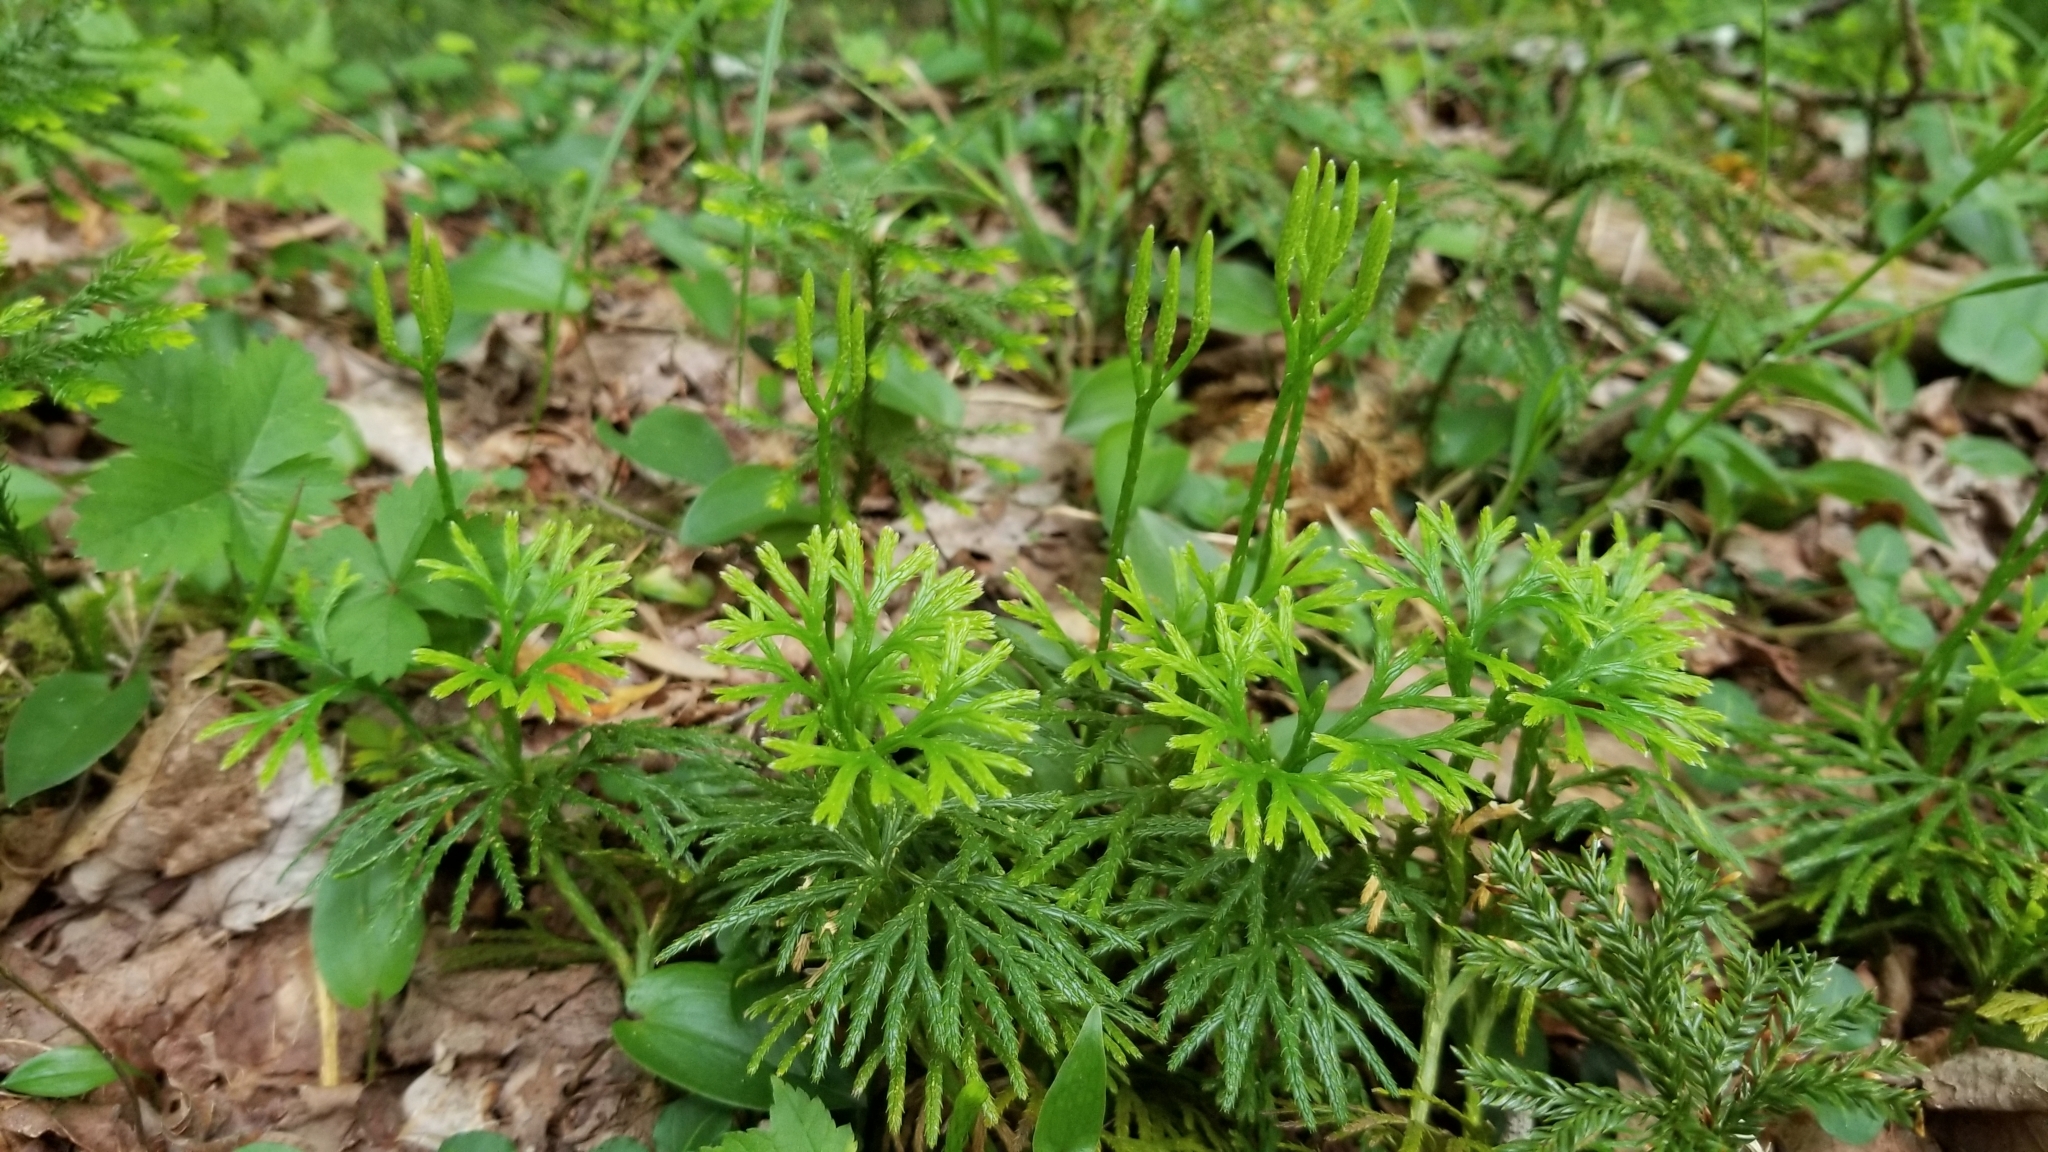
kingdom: Plantae
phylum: Tracheophyta
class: Lycopodiopsida
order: Lycopodiales
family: Lycopodiaceae
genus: Diphasiastrum
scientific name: Diphasiastrum digitatum
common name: Southern running-pine
